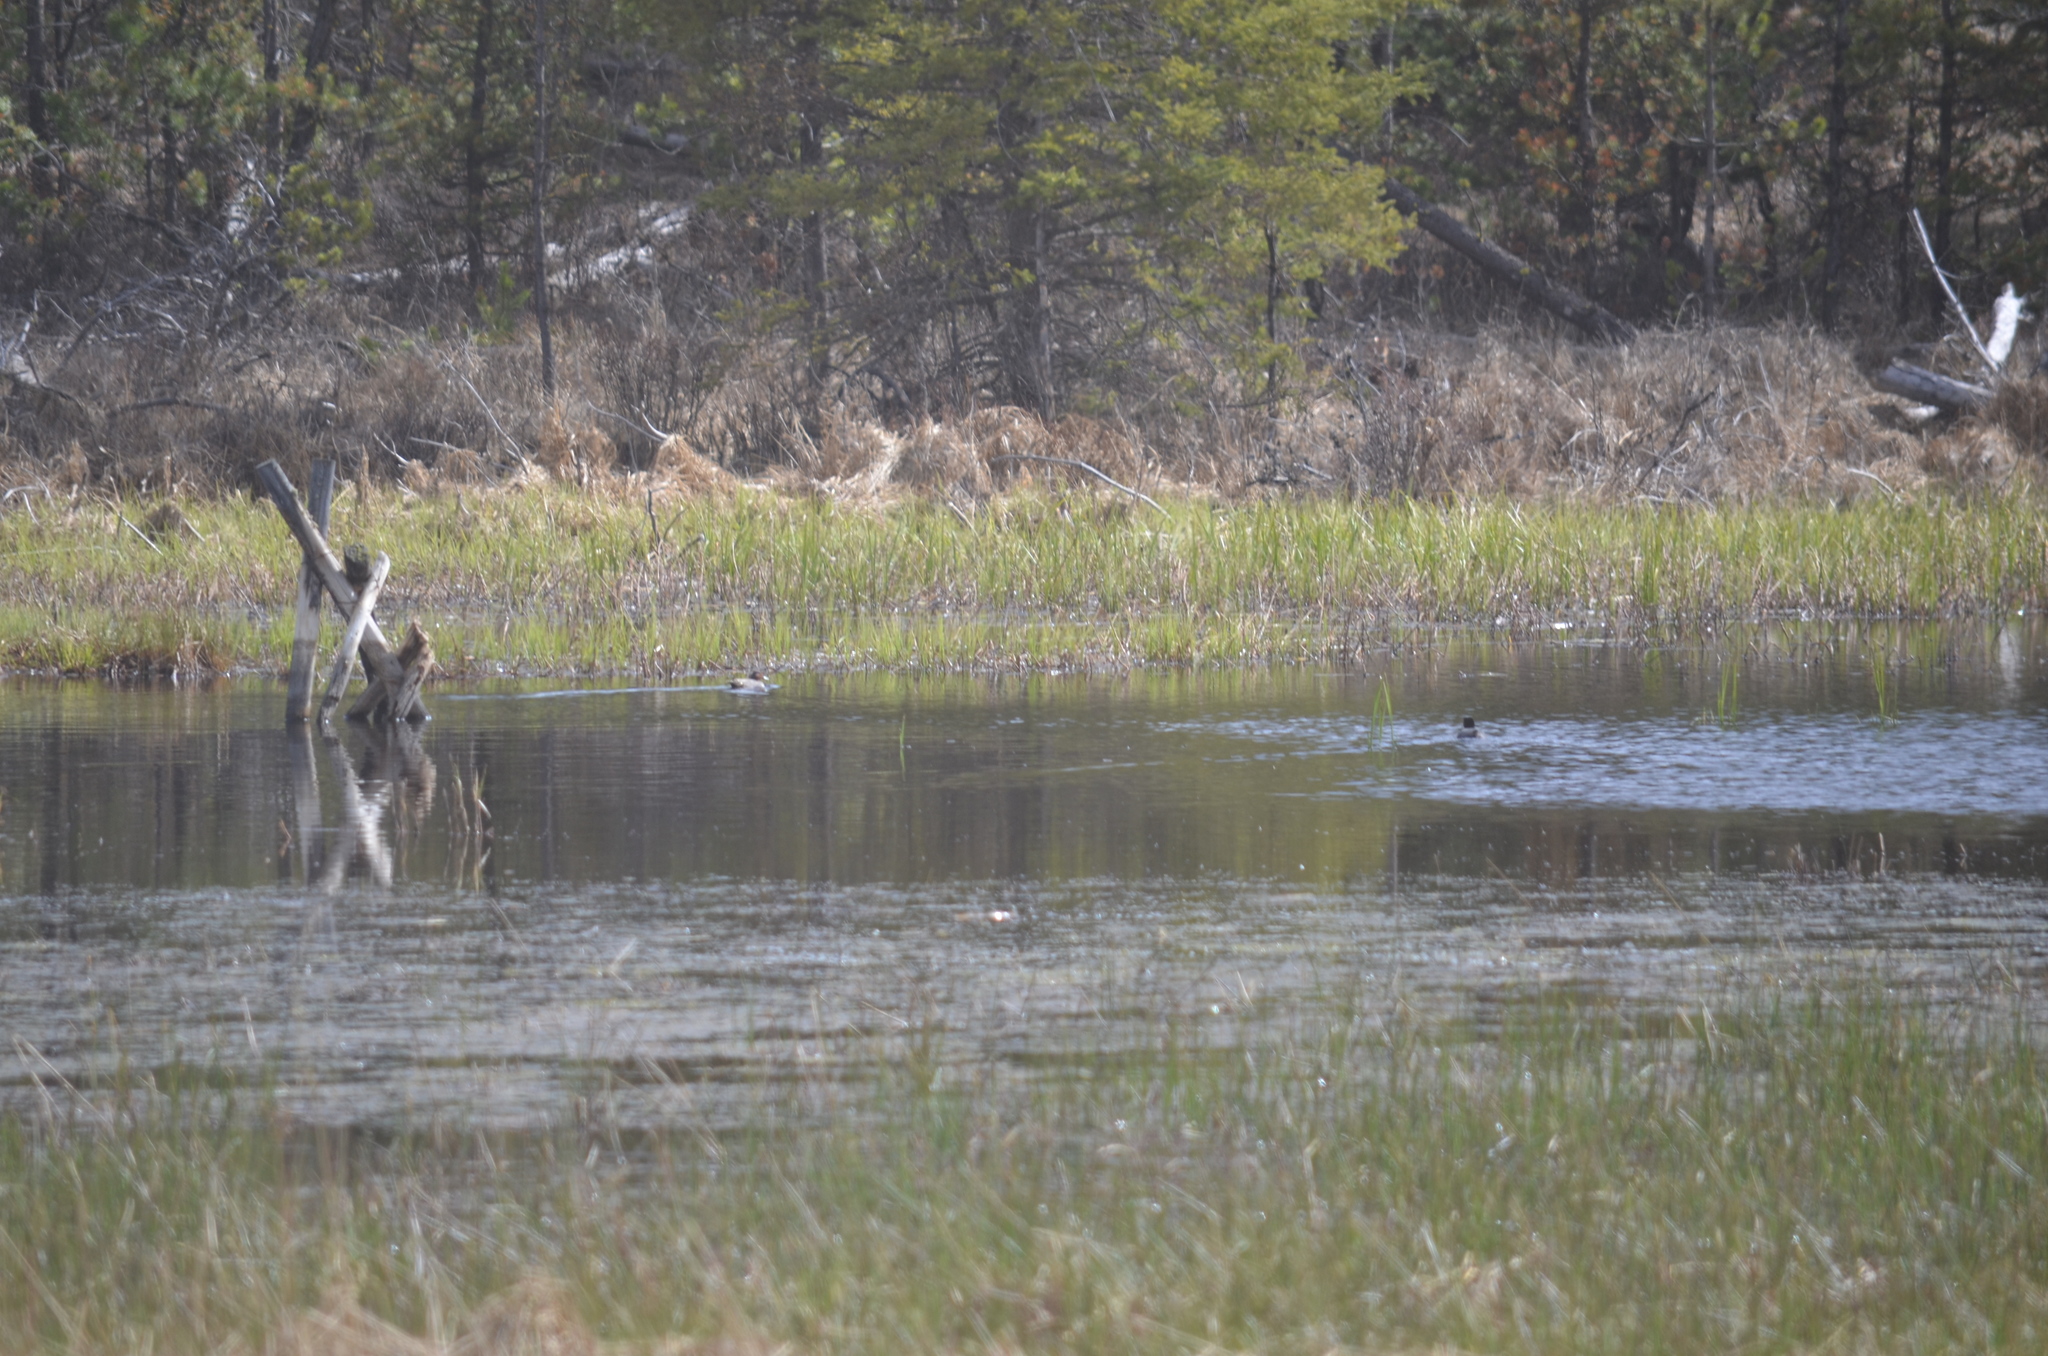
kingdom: Animalia
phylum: Chordata
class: Aves
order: Anseriformes
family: Anatidae
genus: Anas
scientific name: Anas crecca
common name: Eurasian teal
